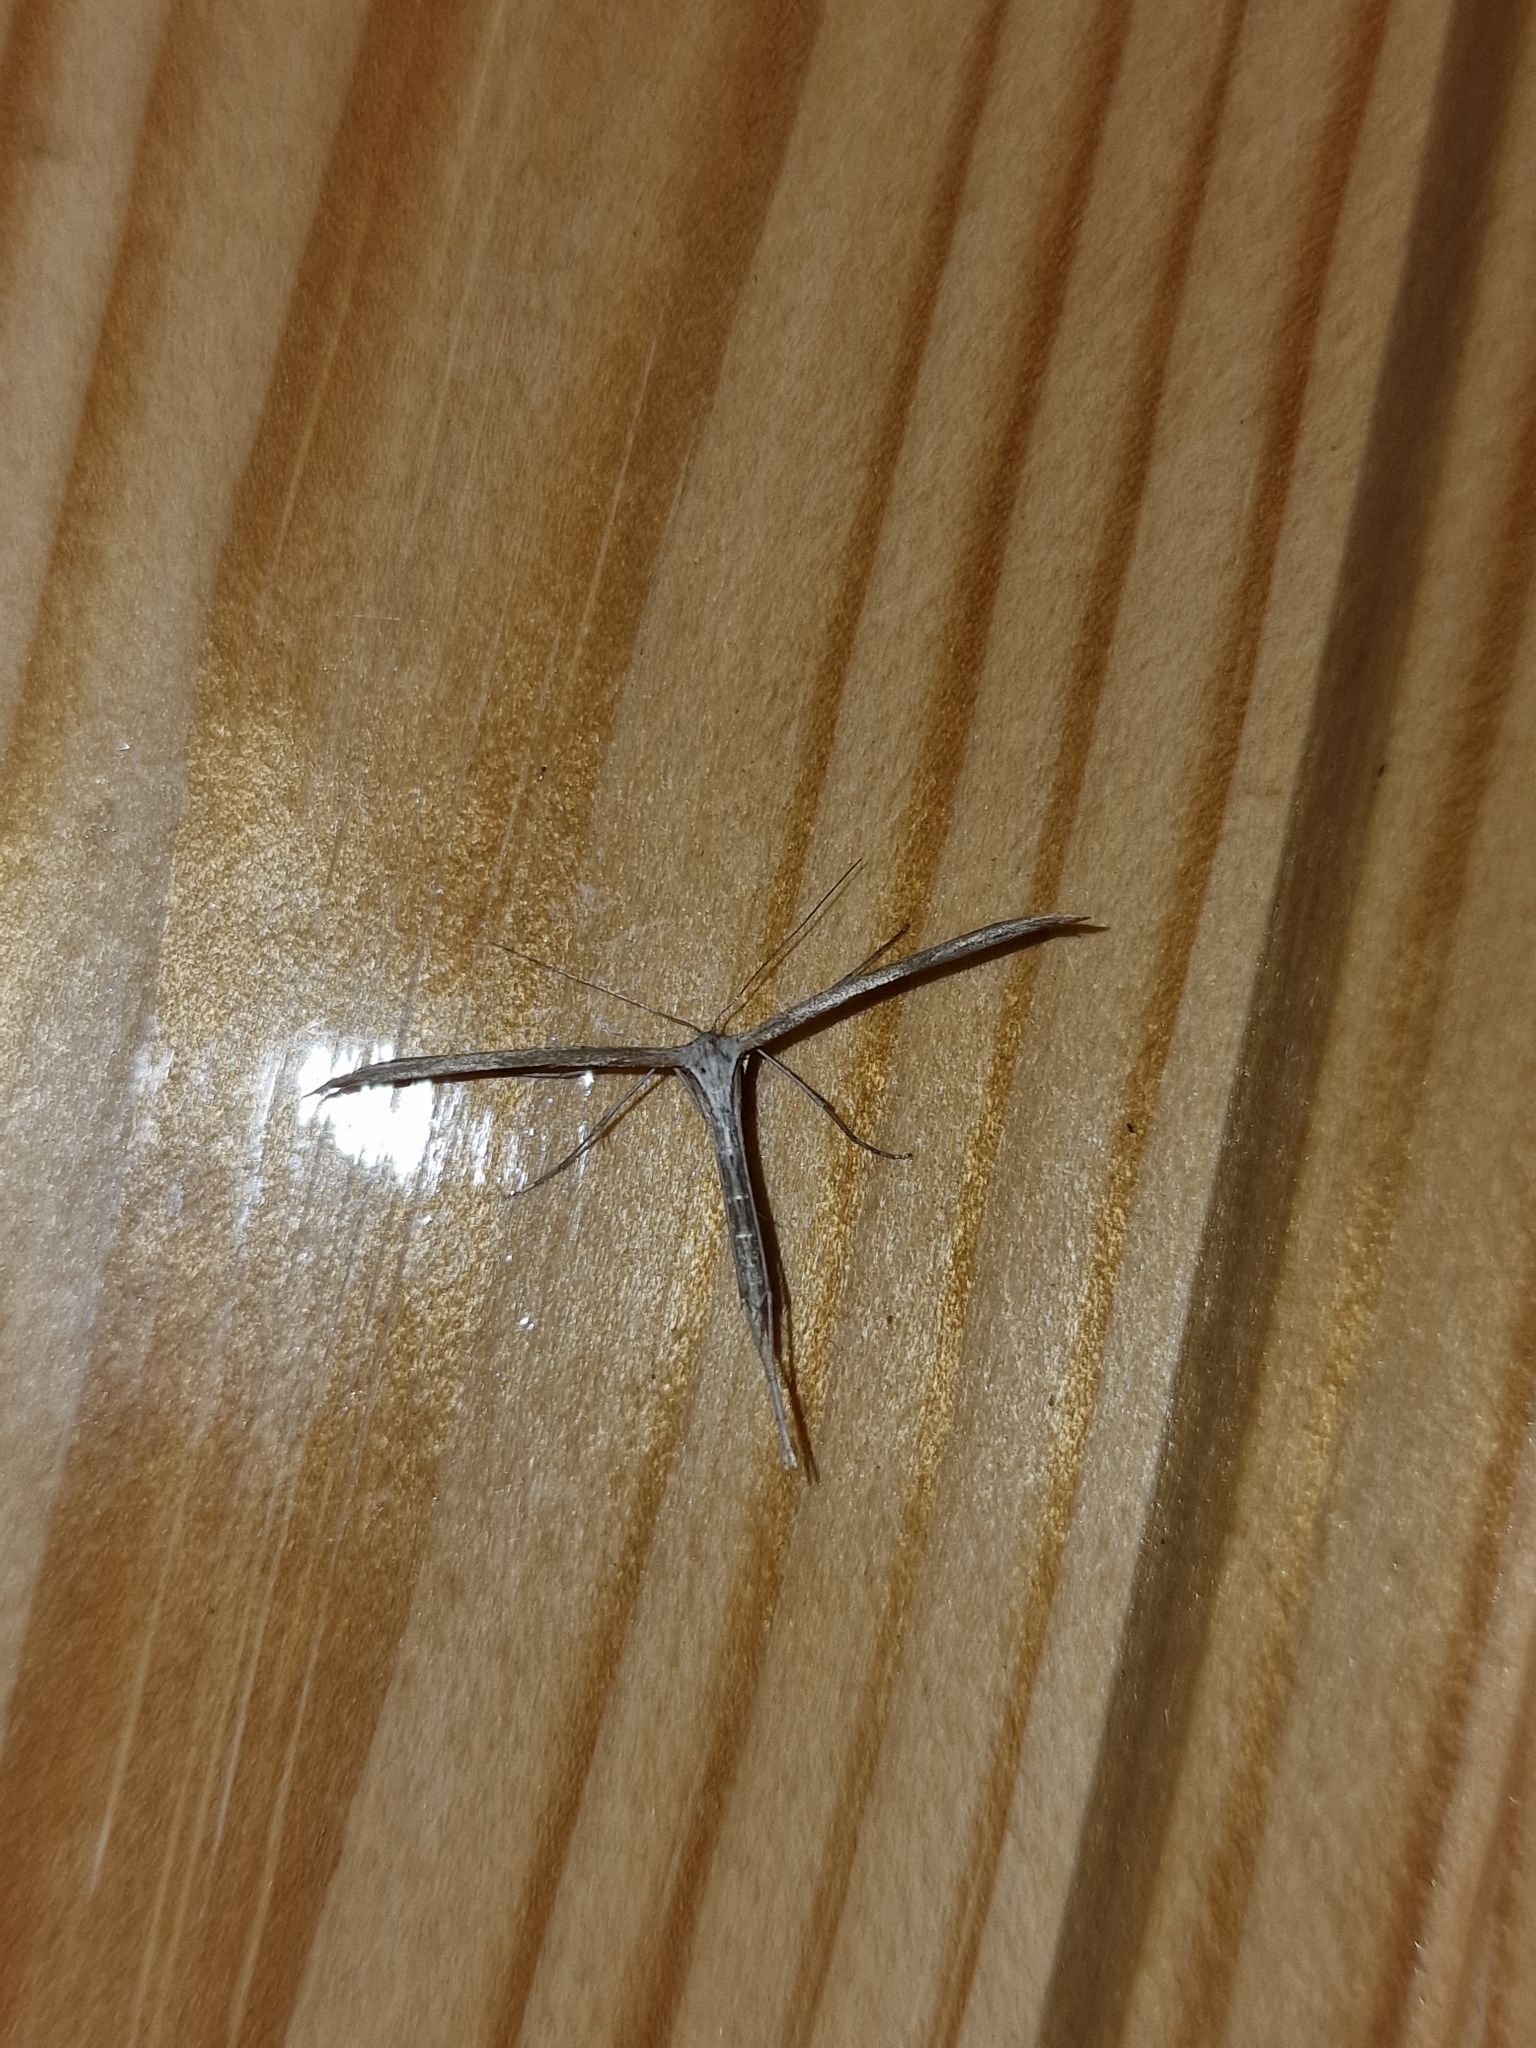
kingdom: Animalia
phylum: Arthropoda
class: Insecta
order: Lepidoptera
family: Pterophoridae
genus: Emmelina
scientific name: Emmelina monodactyla
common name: Common plume
